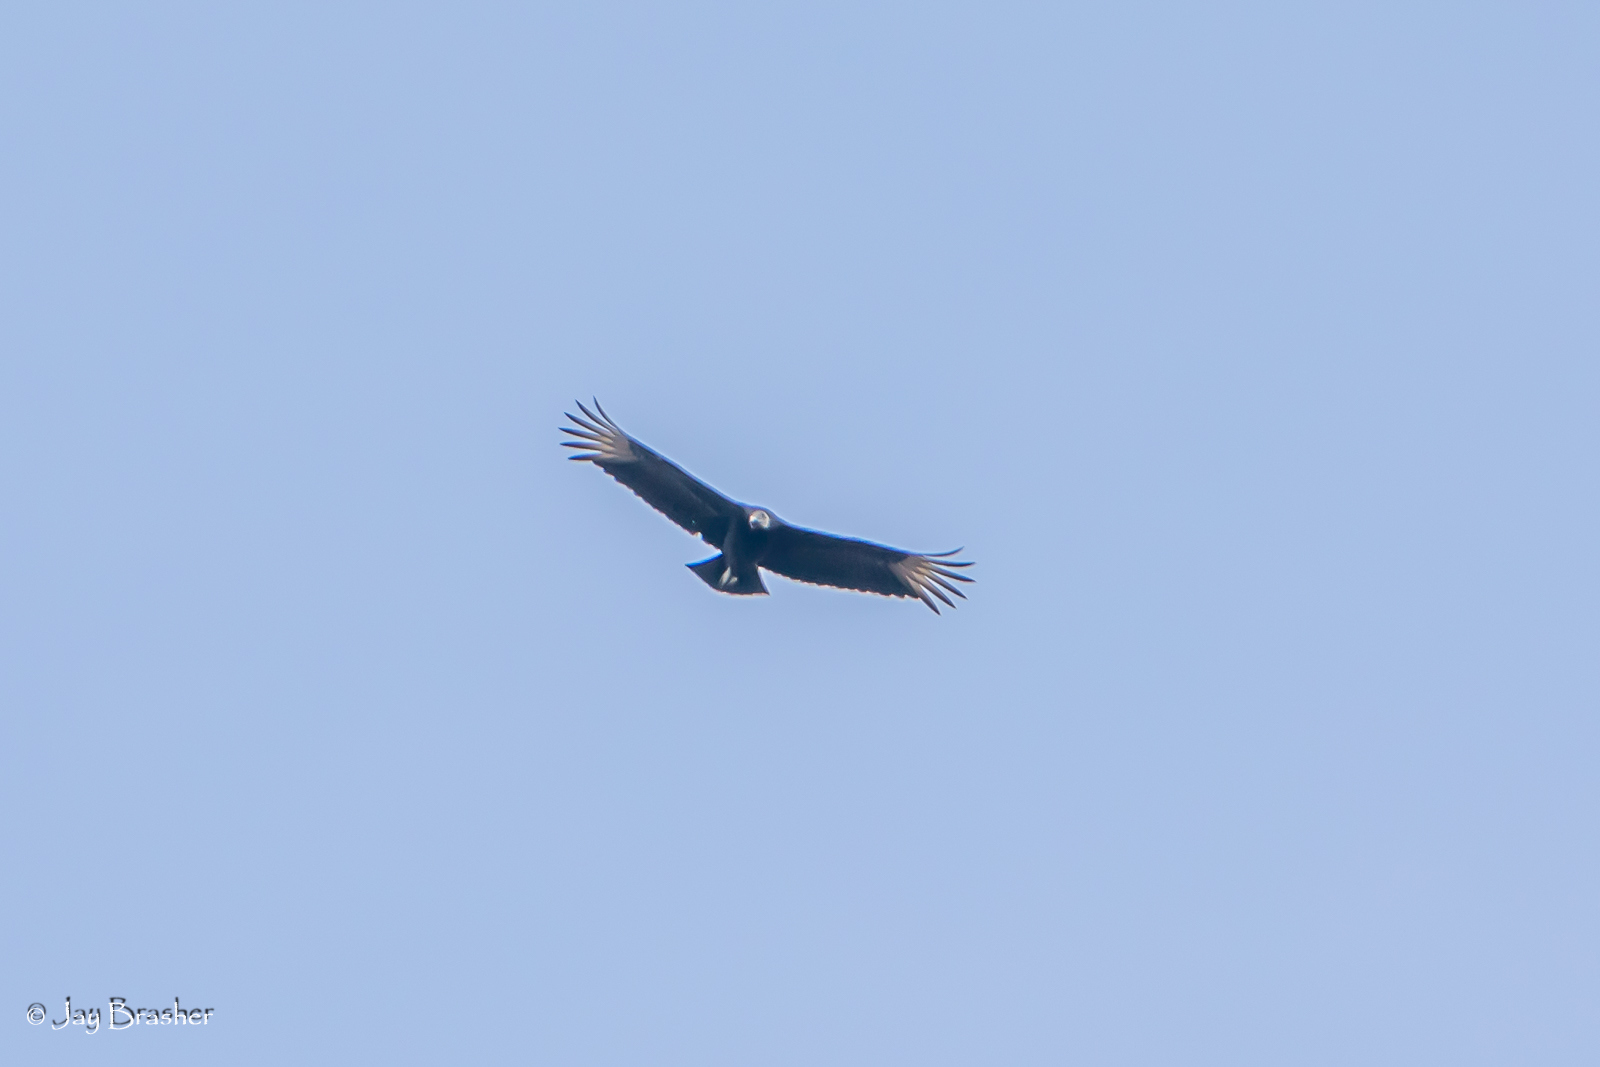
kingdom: Animalia
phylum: Chordata
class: Aves
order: Accipitriformes
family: Cathartidae
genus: Coragyps
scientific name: Coragyps atratus
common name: Black vulture
